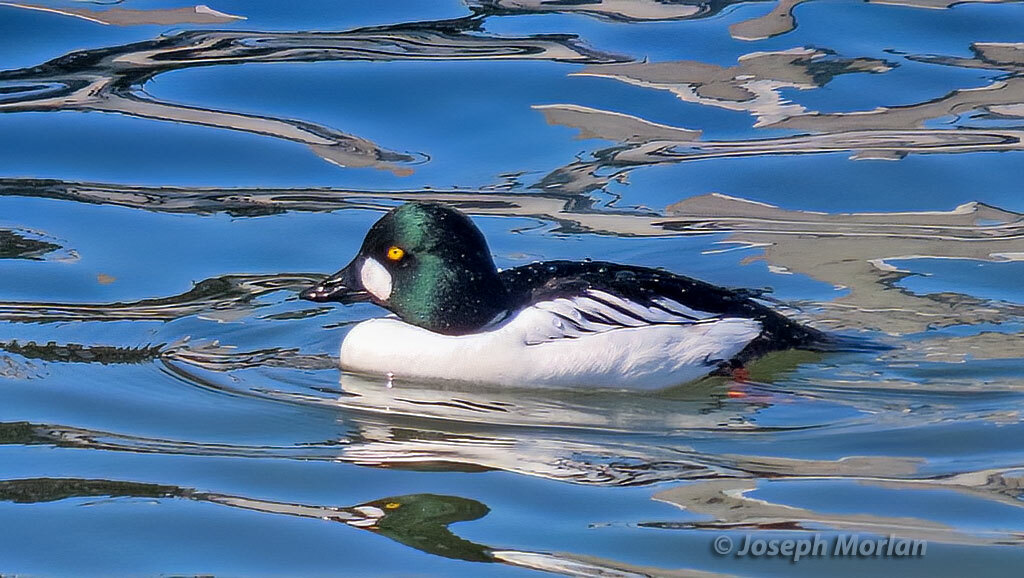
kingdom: Animalia
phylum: Chordata
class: Aves
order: Anseriformes
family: Anatidae
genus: Bucephala
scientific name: Bucephala clangula
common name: Common goldeneye
